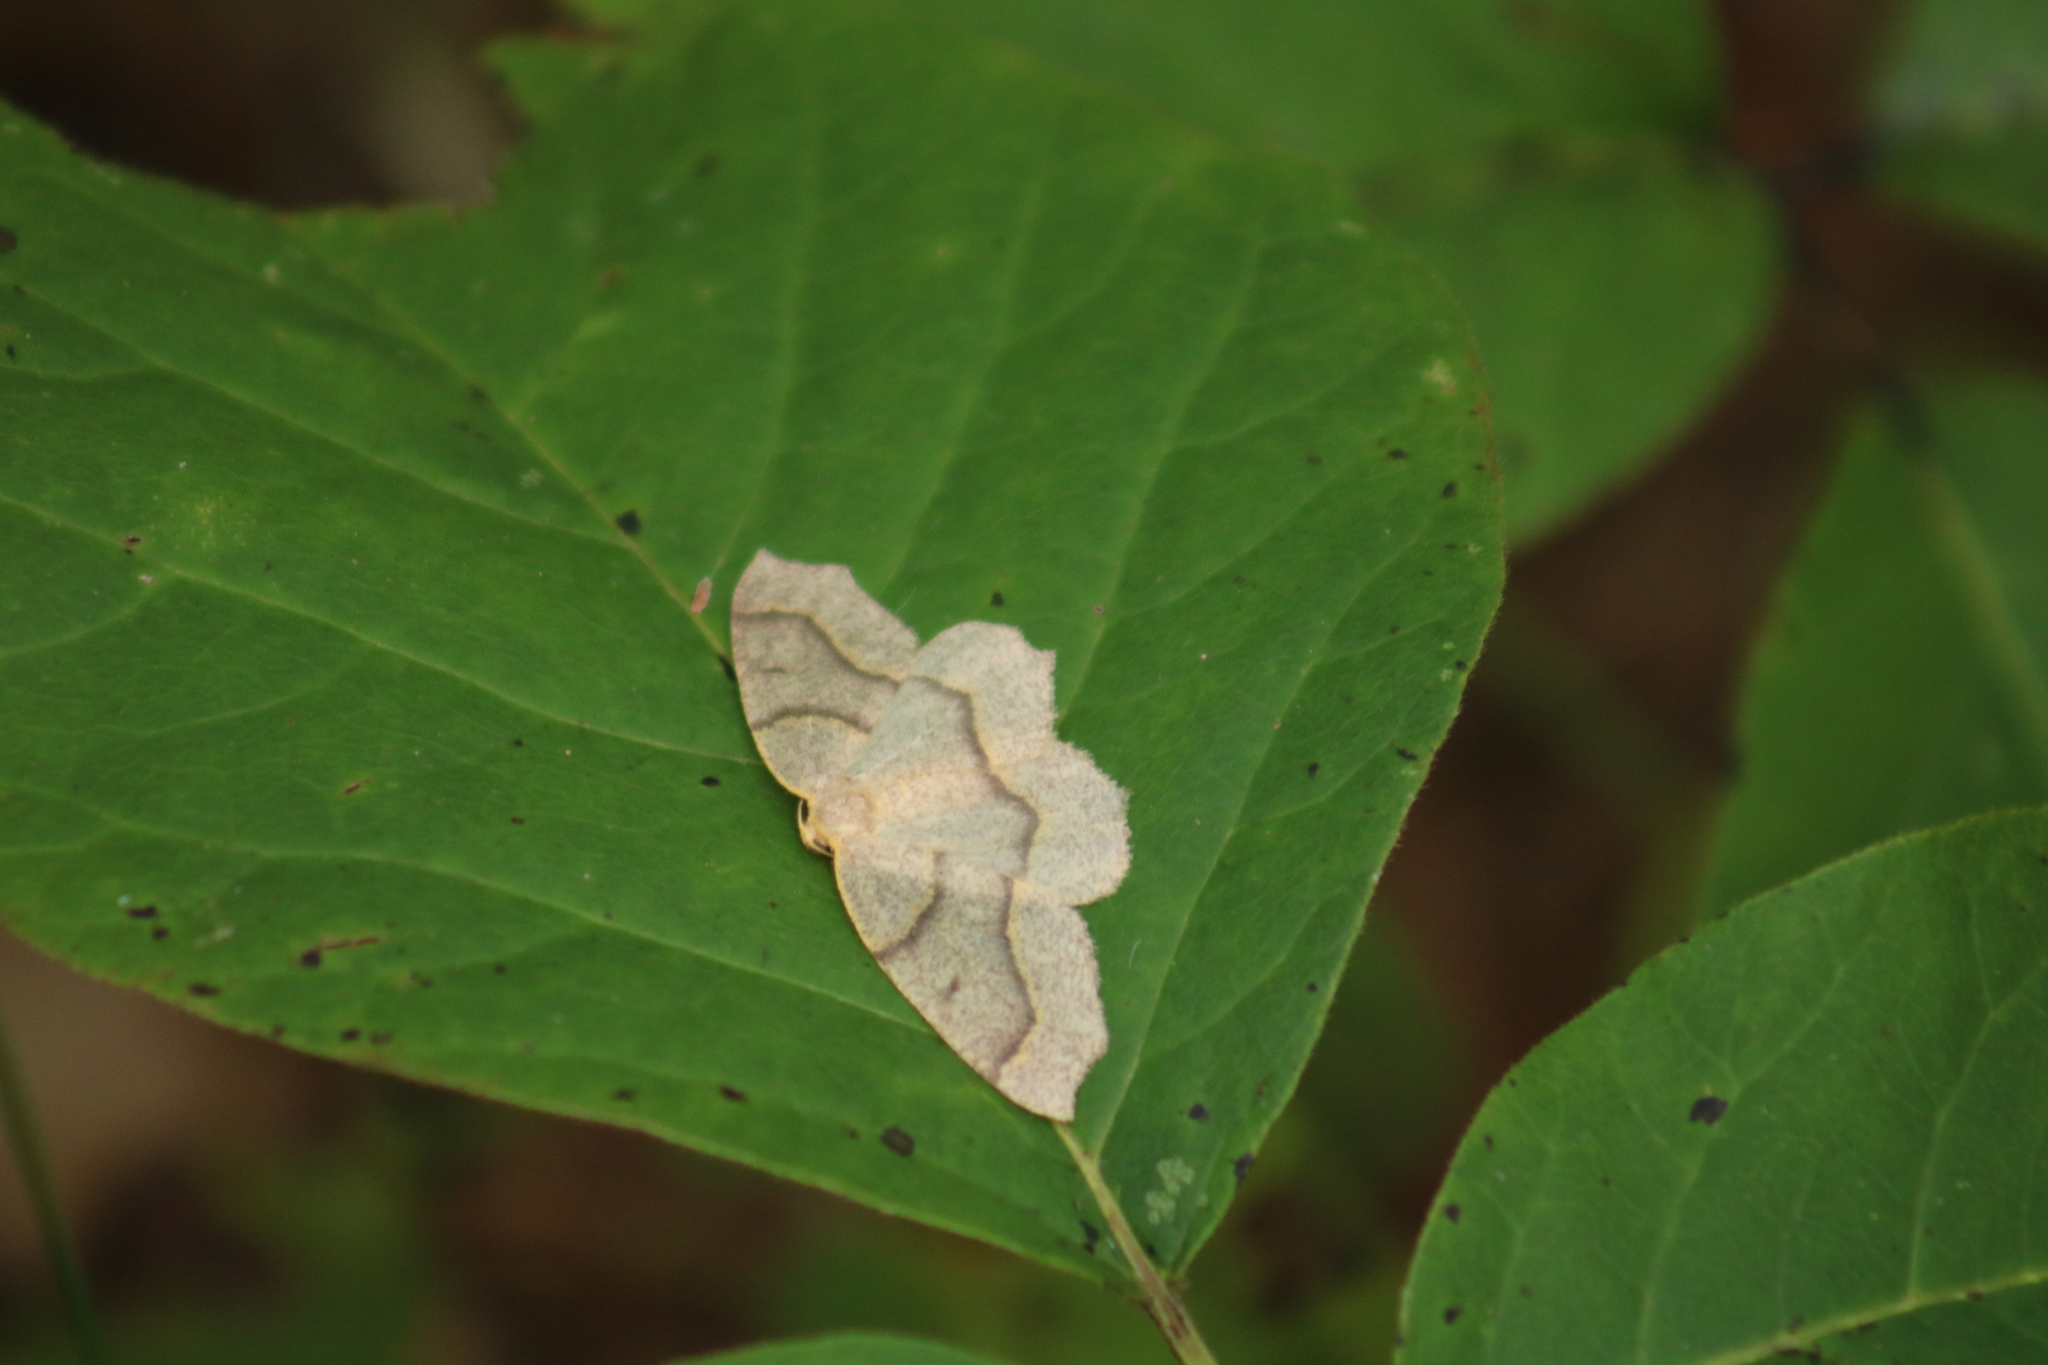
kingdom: Animalia
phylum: Arthropoda
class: Insecta
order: Lepidoptera
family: Geometridae
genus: Lambdina
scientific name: Lambdina fiscellaria
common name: Hemlock looper
